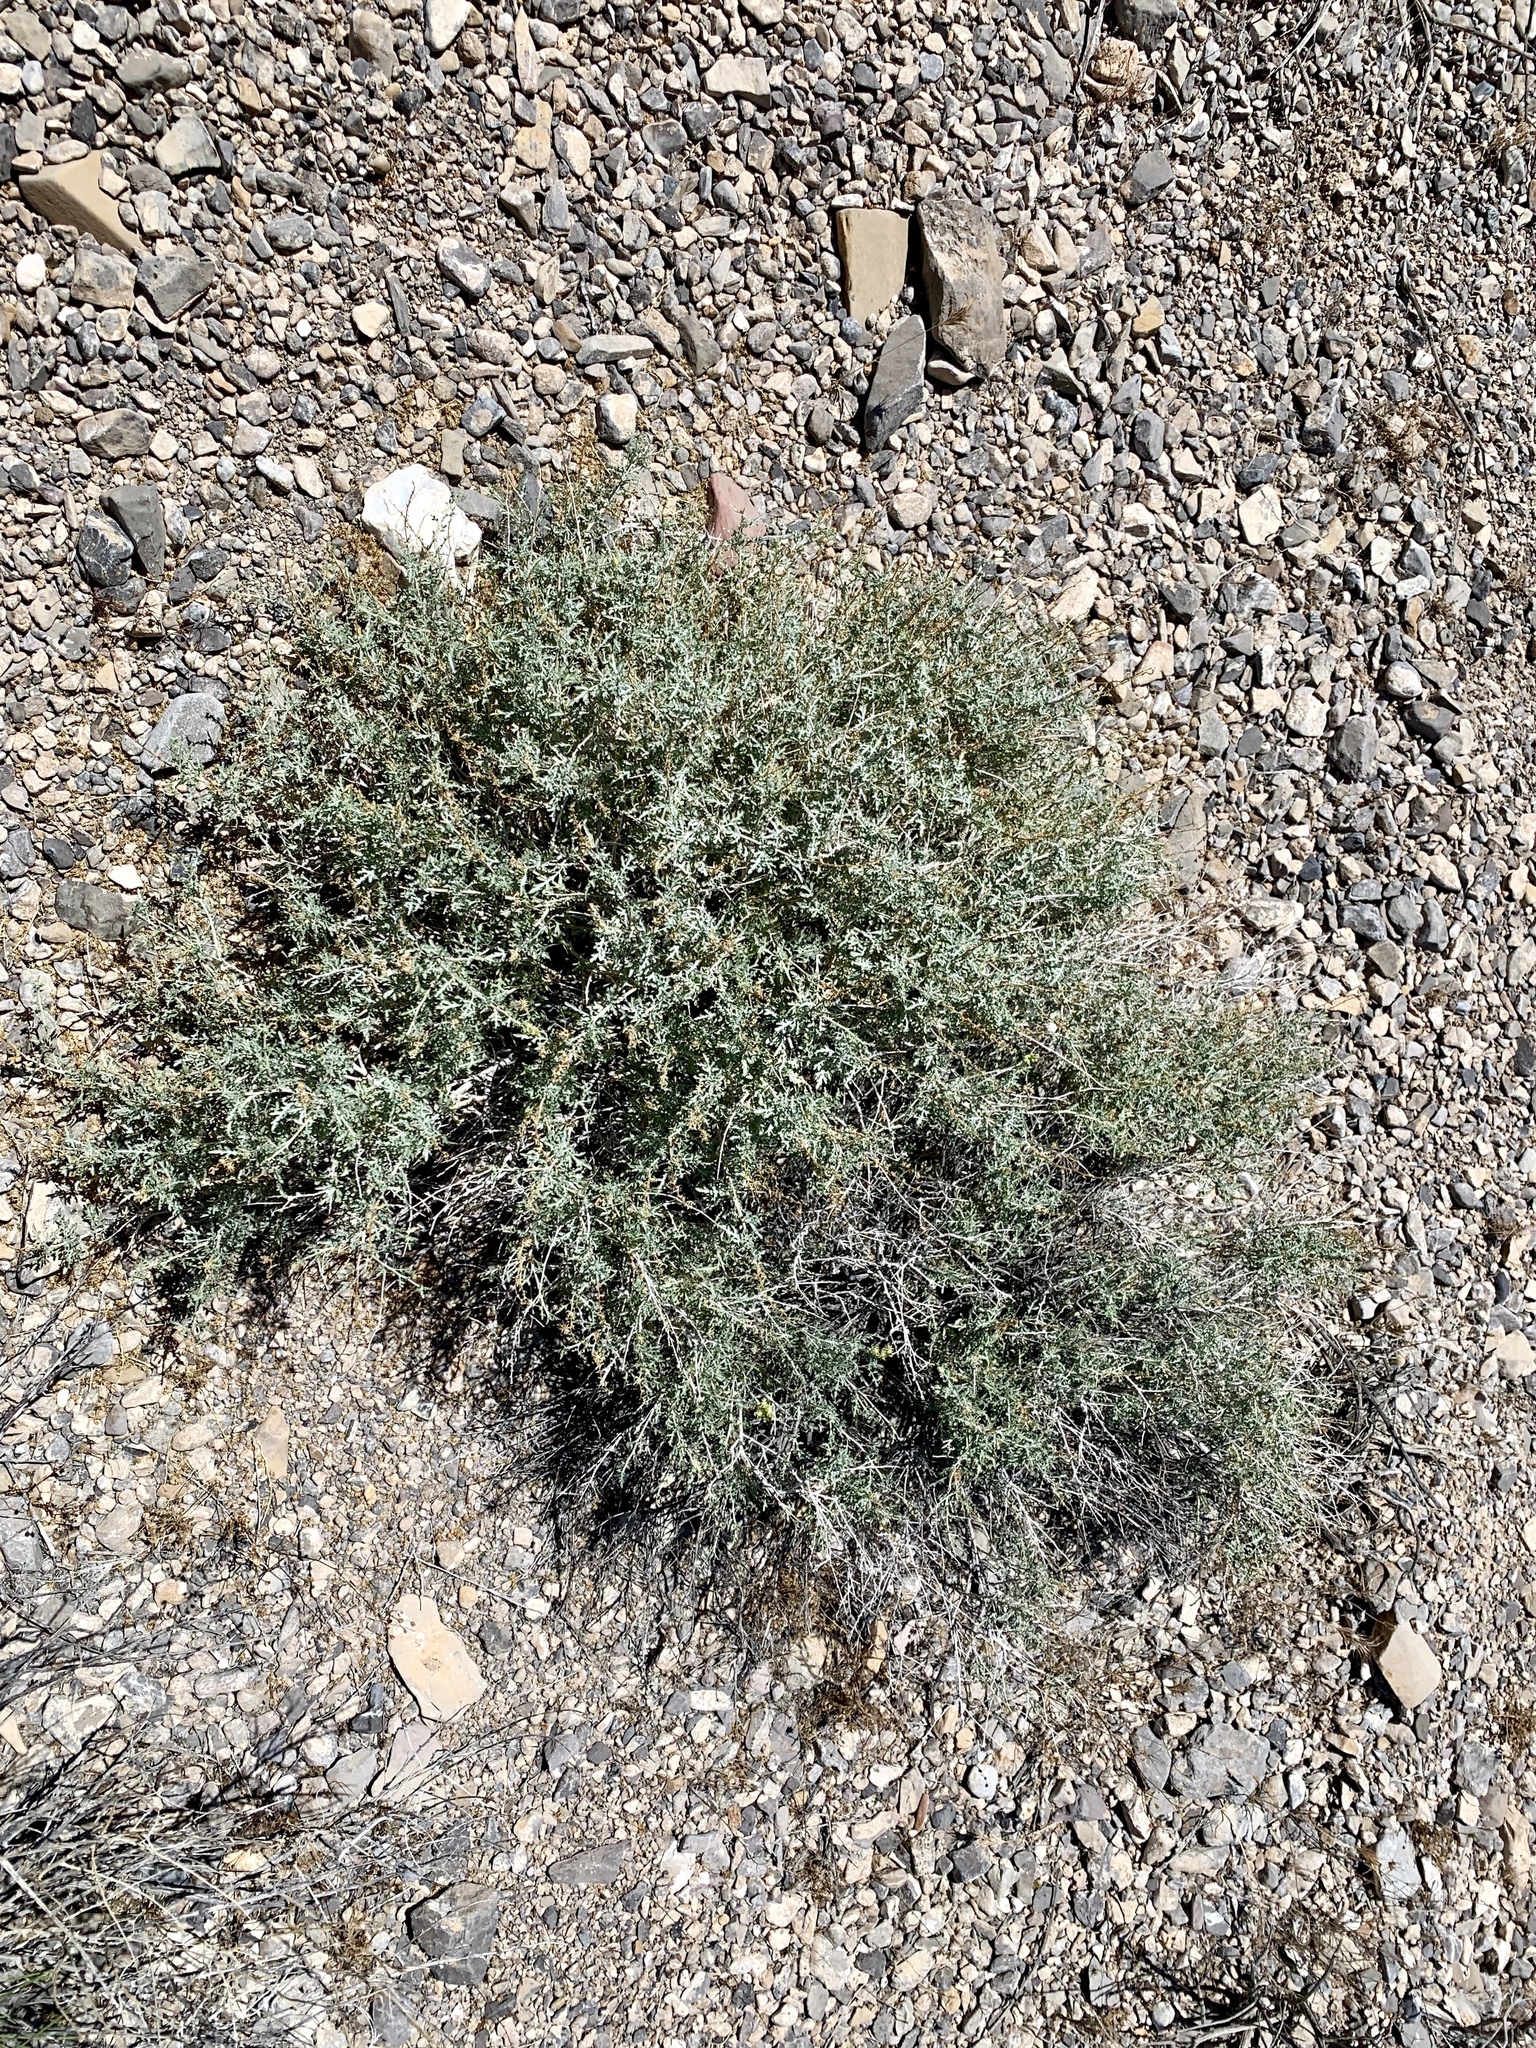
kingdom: Plantae
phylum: Tracheophyta
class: Magnoliopsida
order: Asterales
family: Asteraceae
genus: Ambrosia
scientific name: Ambrosia dumosa
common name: Bur-sage
